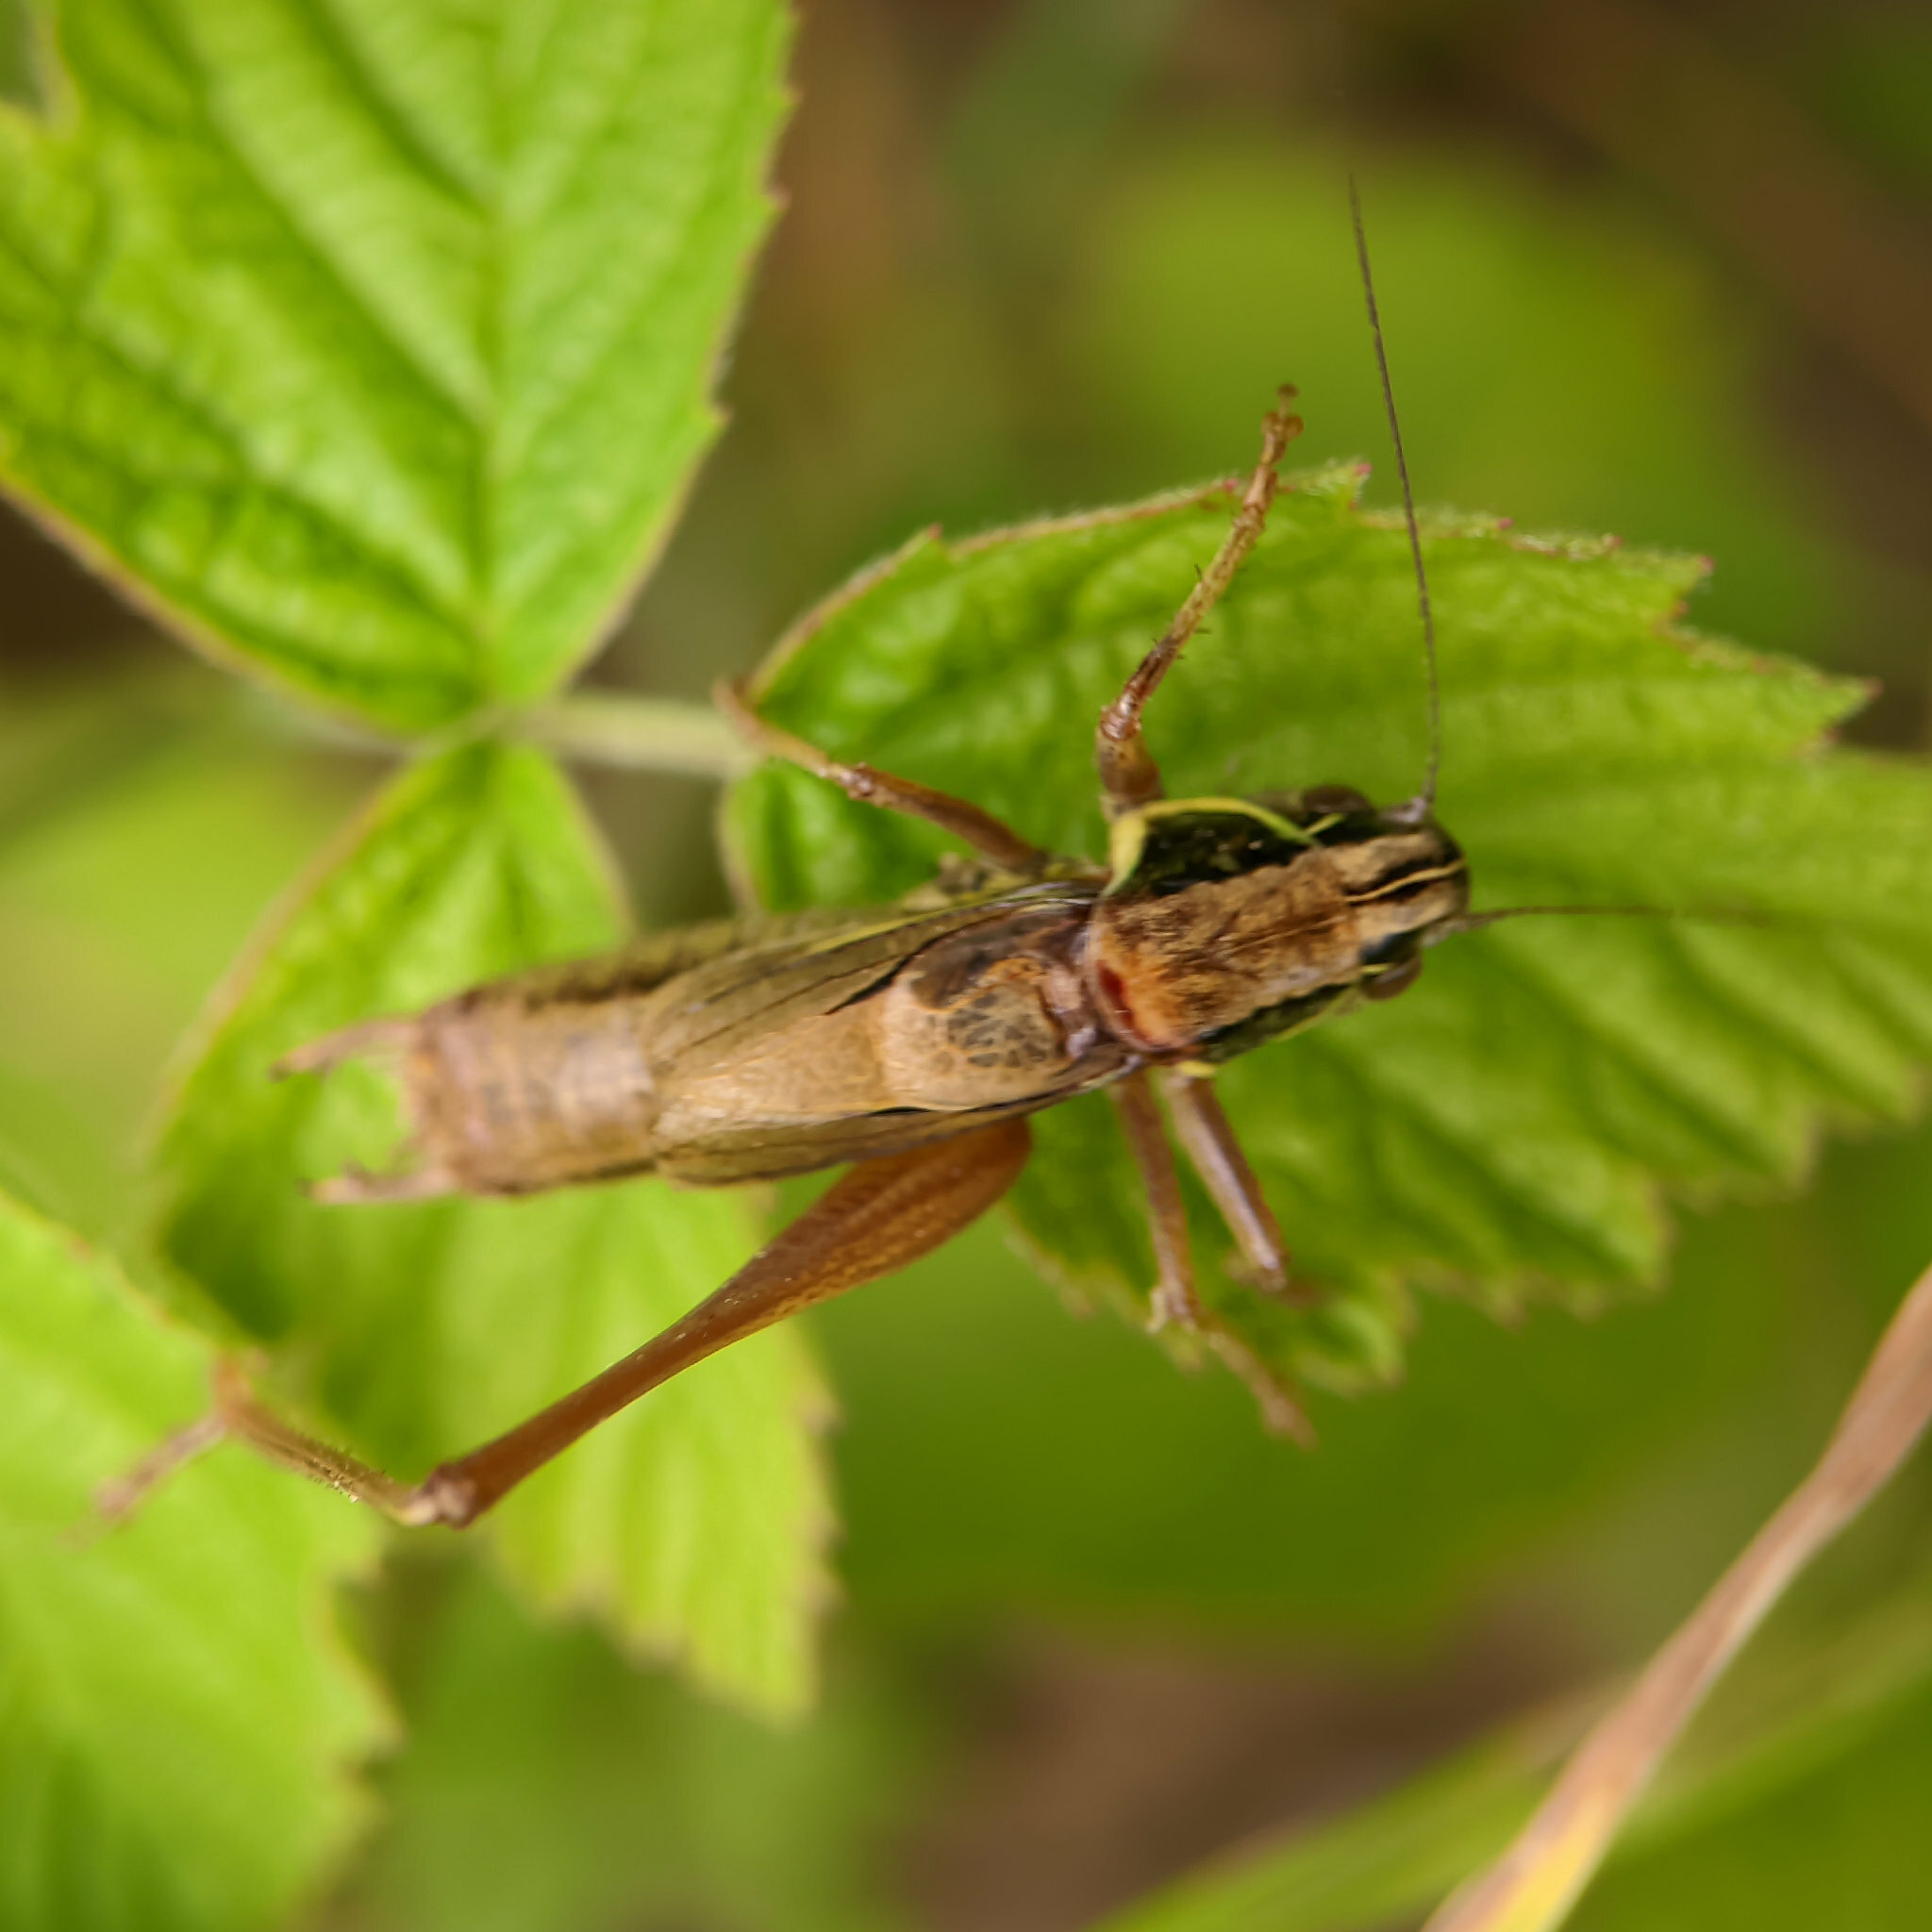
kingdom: Animalia
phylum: Arthropoda
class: Insecta
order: Orthoptera
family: Tettigoniidae
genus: Roeseliana
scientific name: Roeseliana roeselii
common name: Roesel's bush cricket
